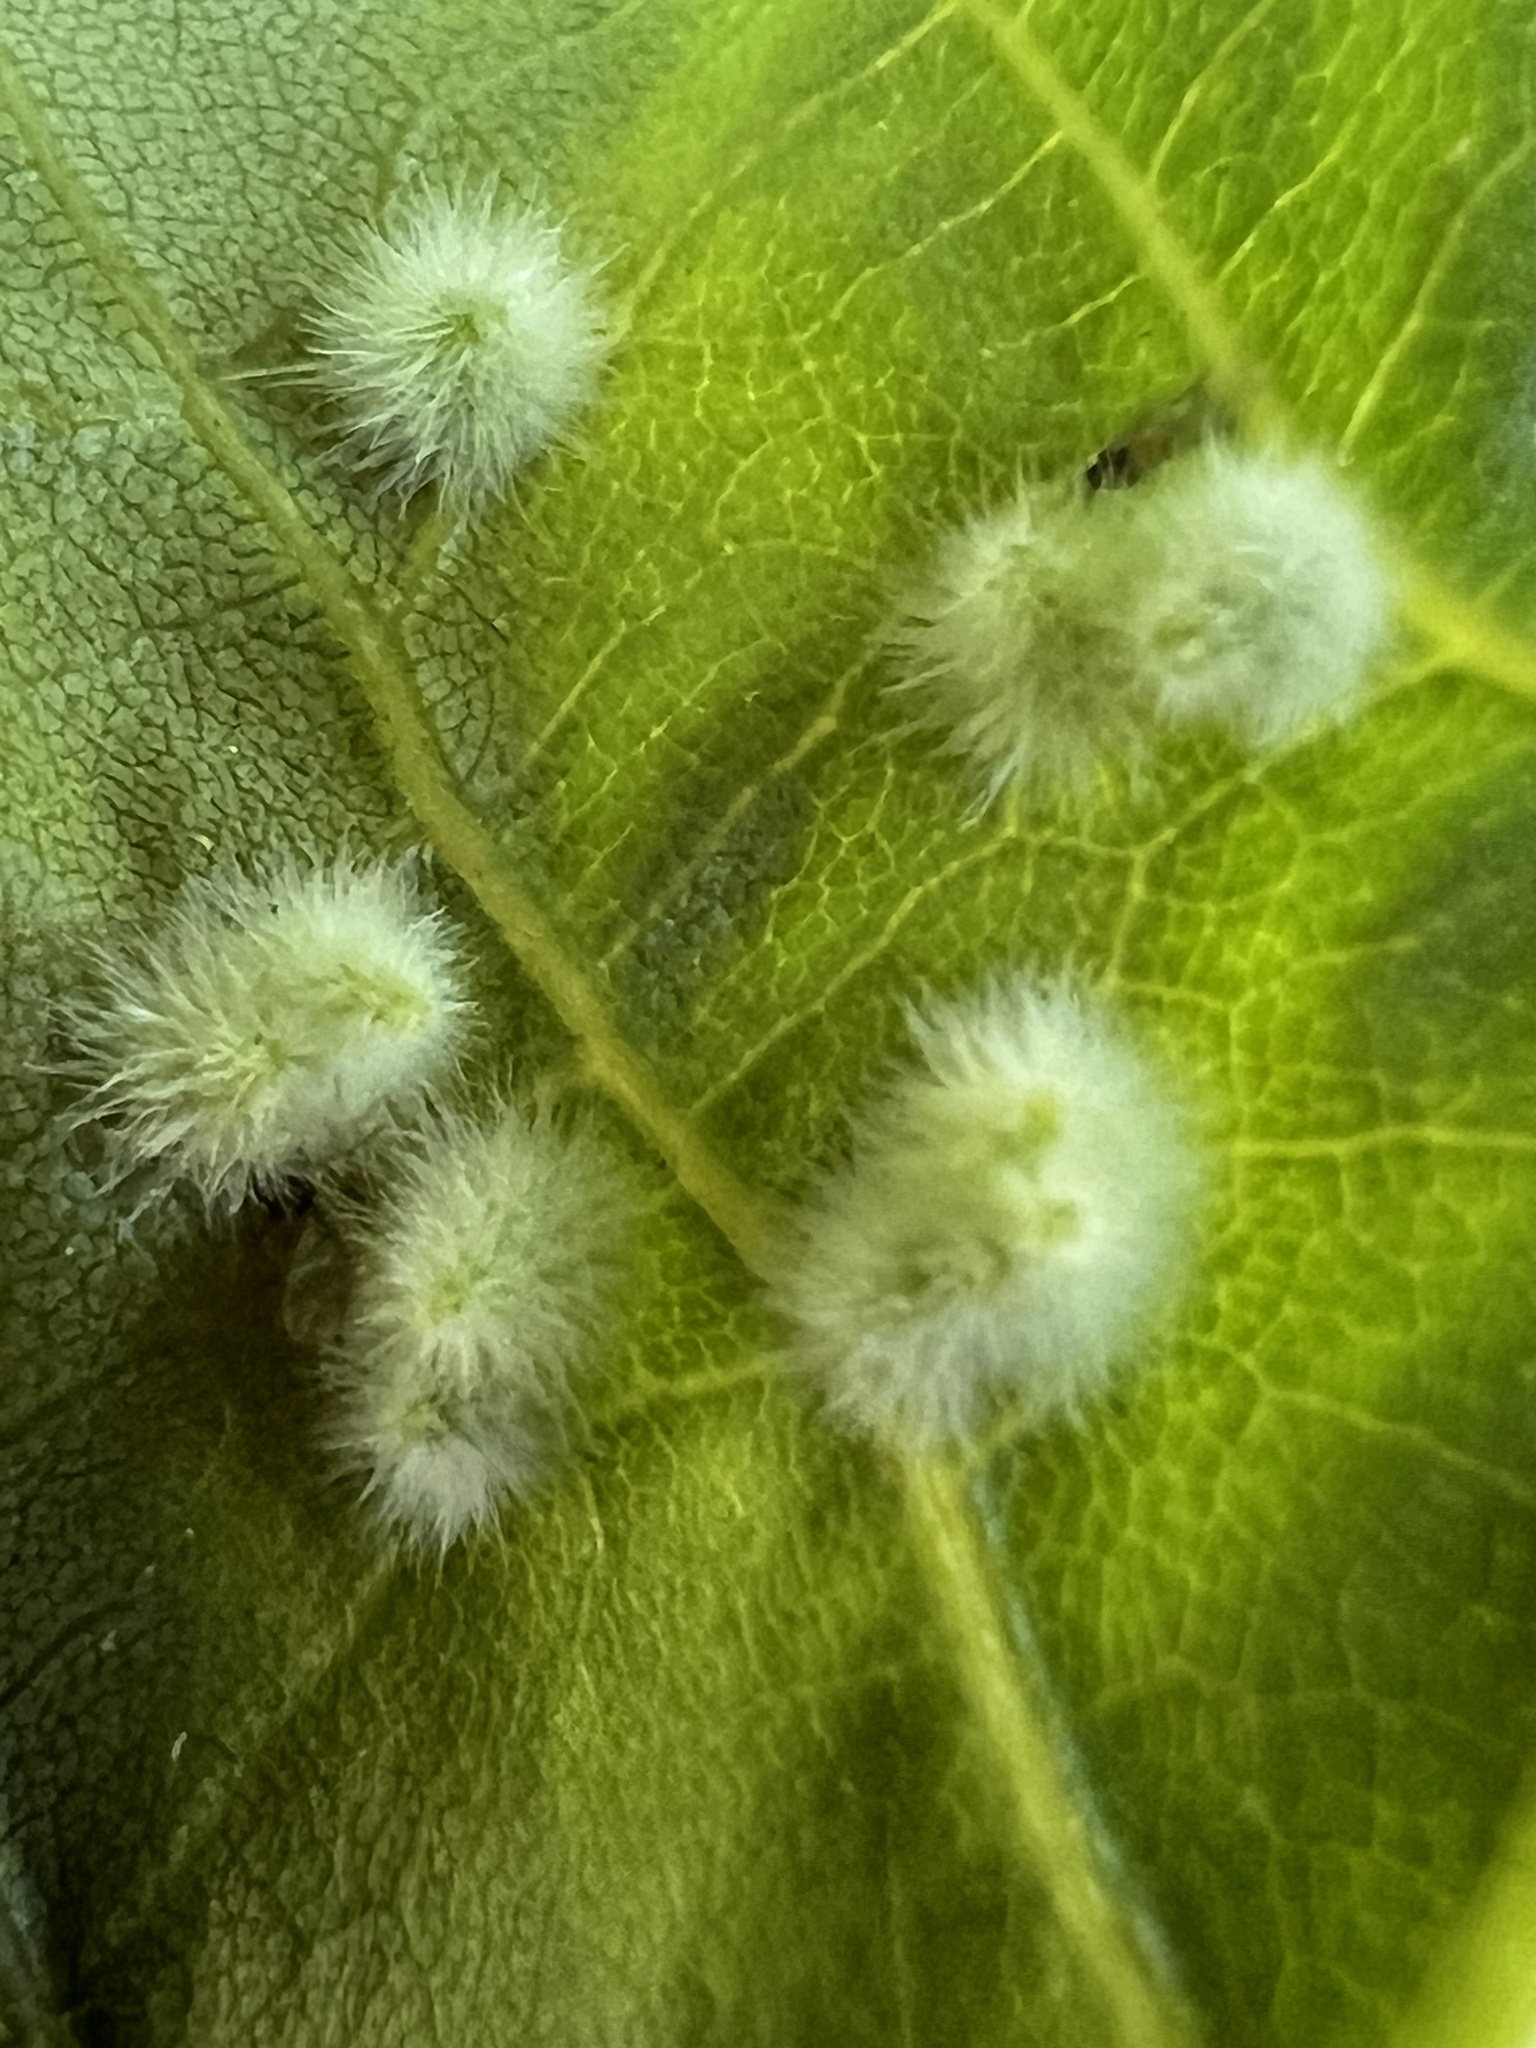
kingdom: Animalia
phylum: Arthropoda
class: Insecta
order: Diptera
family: Cecidomyiidae
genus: Caryomyia
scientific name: Caryomyia albipilosa
